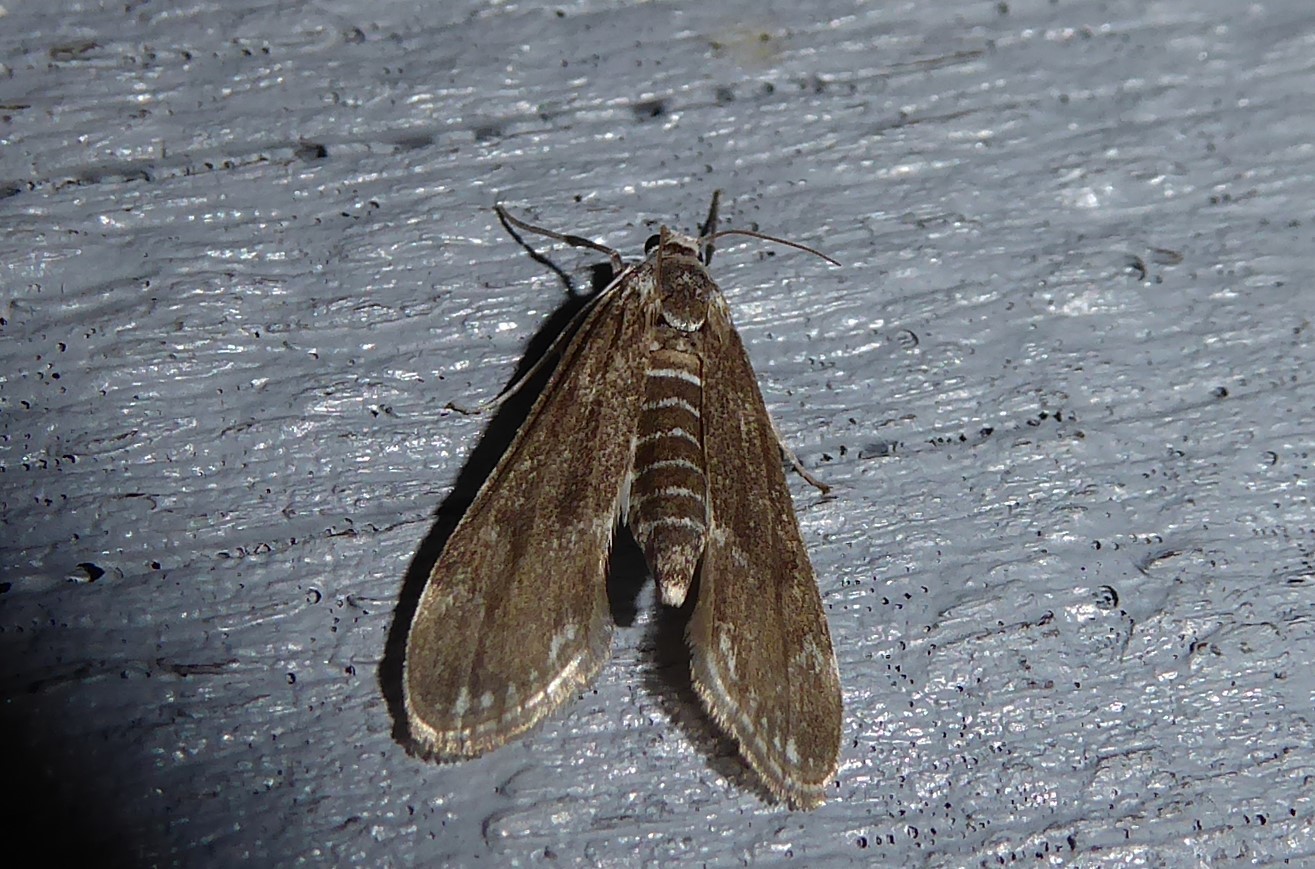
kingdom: Animalia
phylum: Arthropoda
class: Insecta
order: Lepidoptera
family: Crambidae
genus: Hygraula
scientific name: Hygraula nitens
